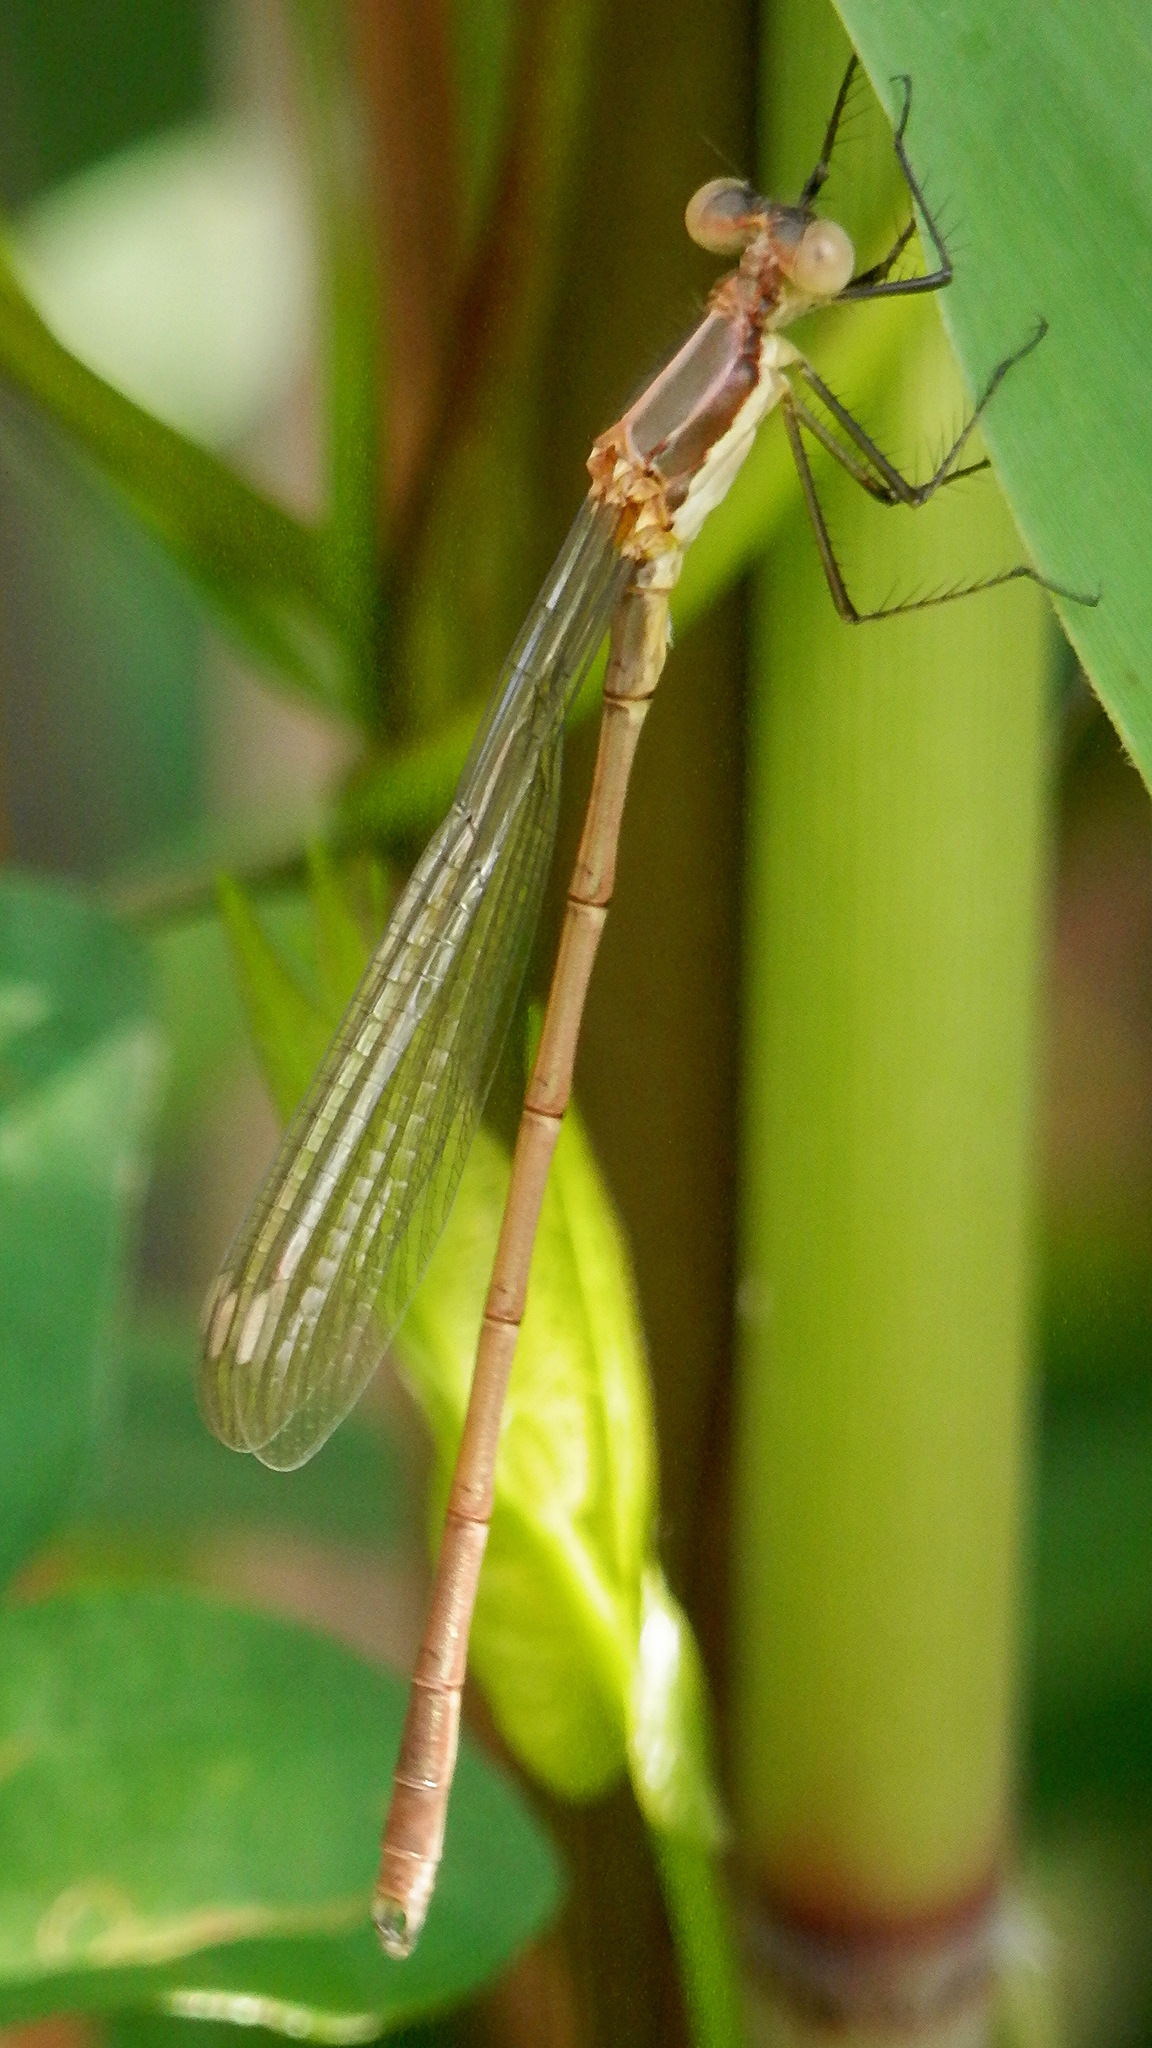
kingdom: Animalia
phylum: Arthropoda
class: Insecta
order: Odonata
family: Lestidae
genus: Lestes
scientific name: Lestes inaequalis
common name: Elegant spreadwing
